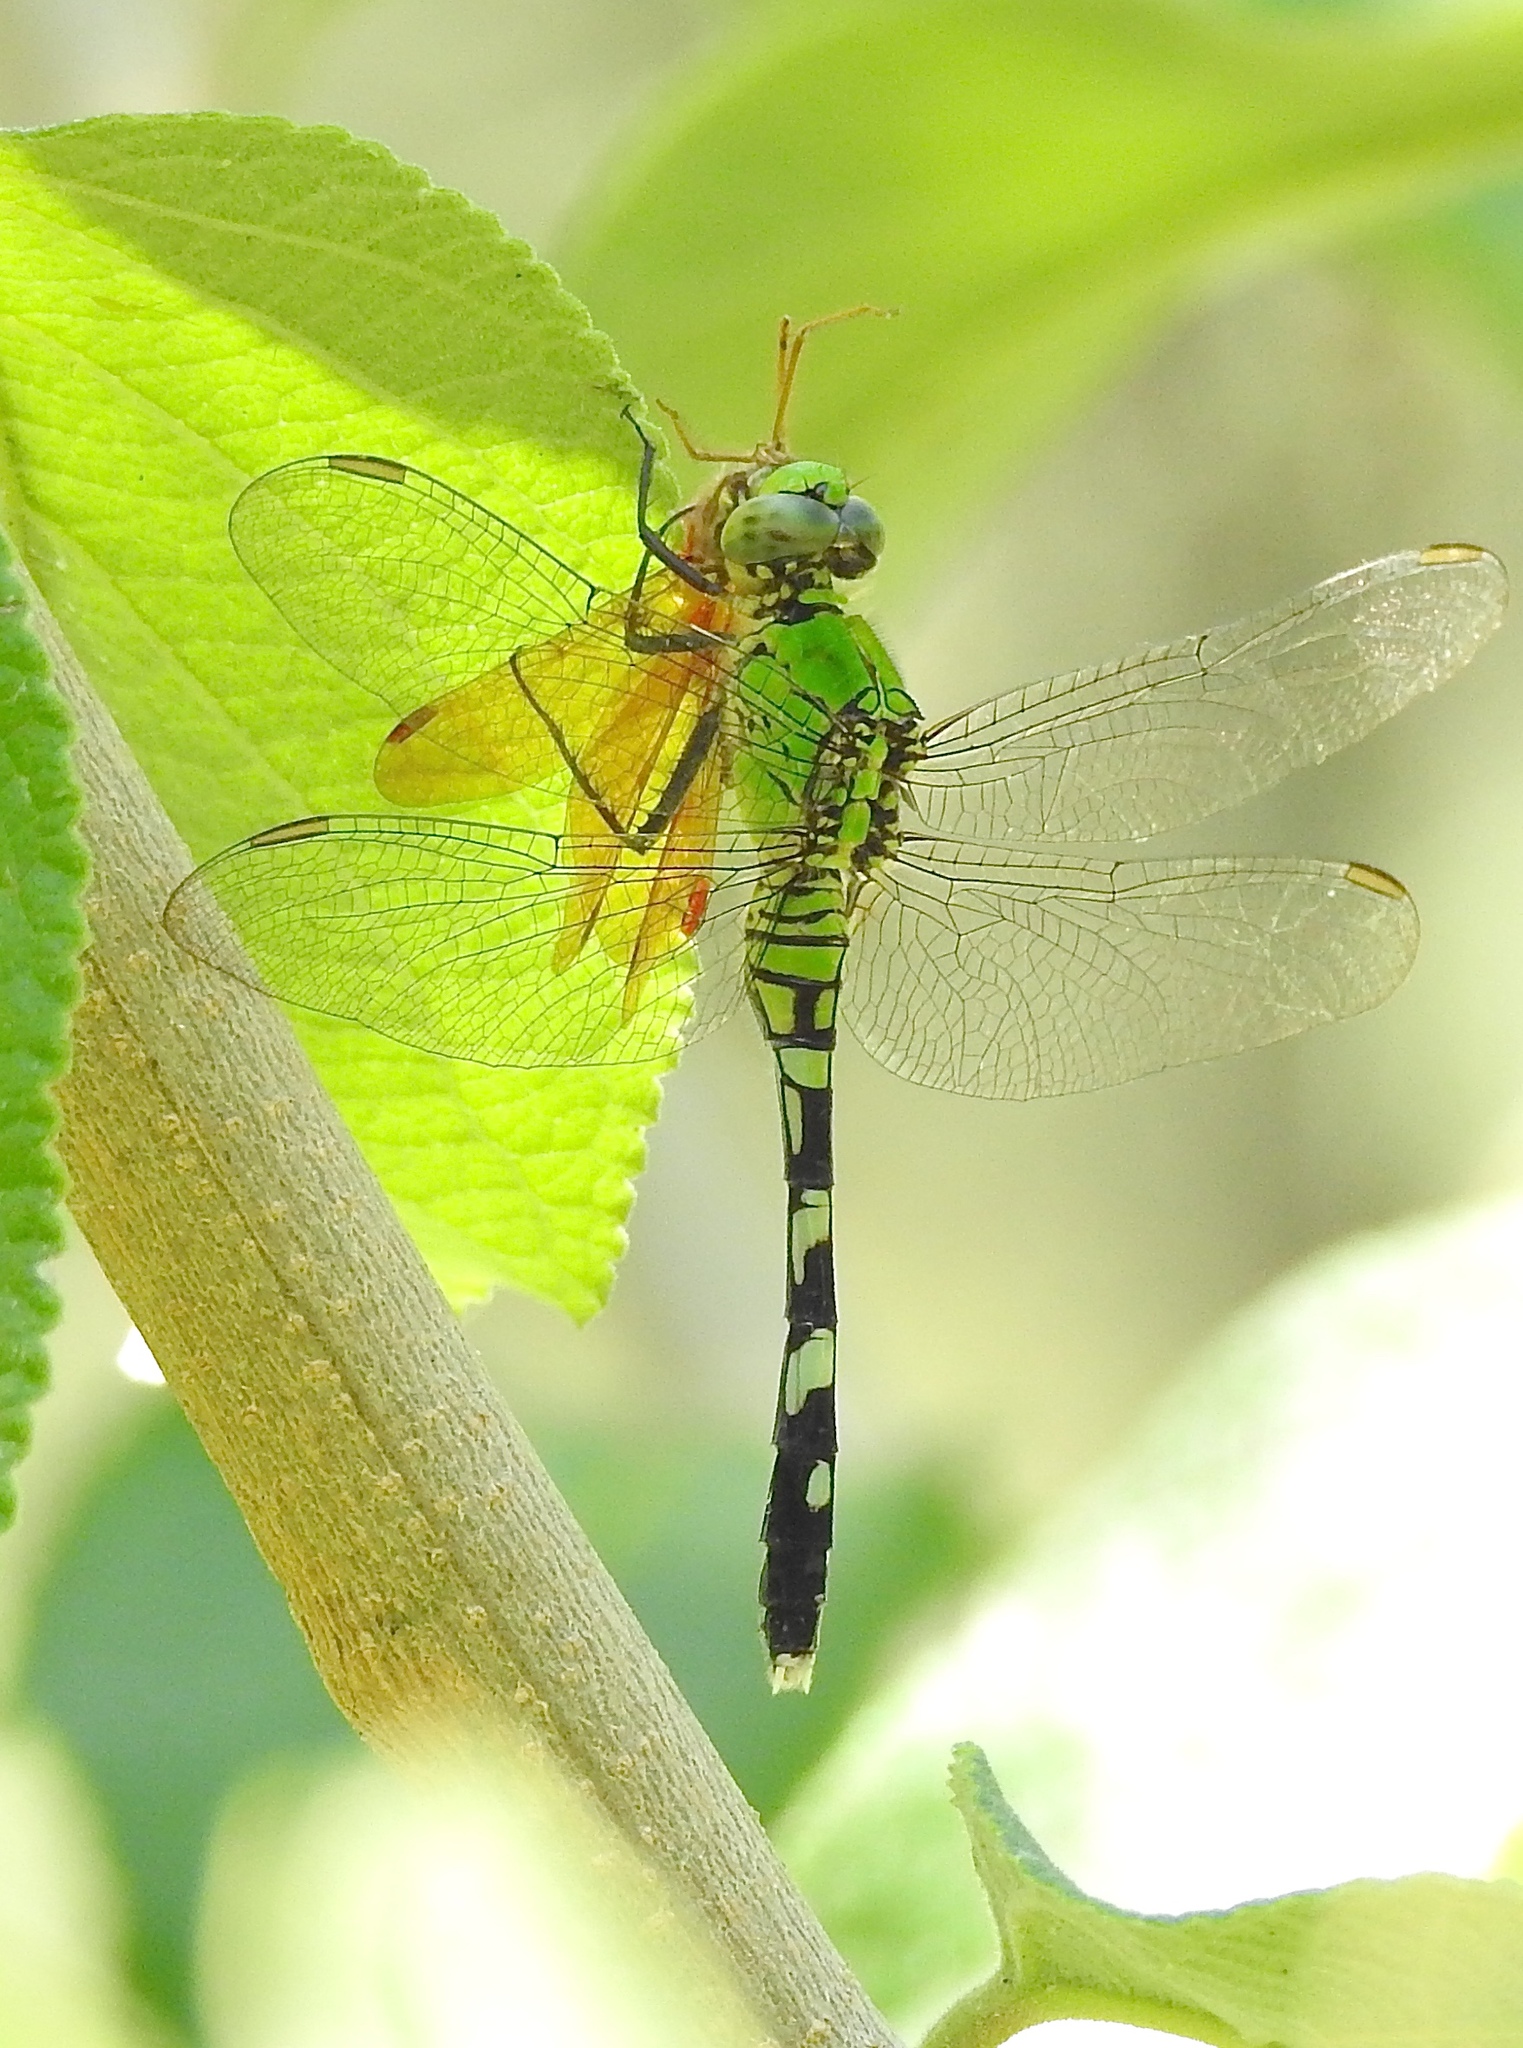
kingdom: Animalia
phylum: Arthropoda
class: Insecta
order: Odonata
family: Libellulidae
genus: Perithemis
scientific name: Perithemis tenera
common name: Eastern amberwing
